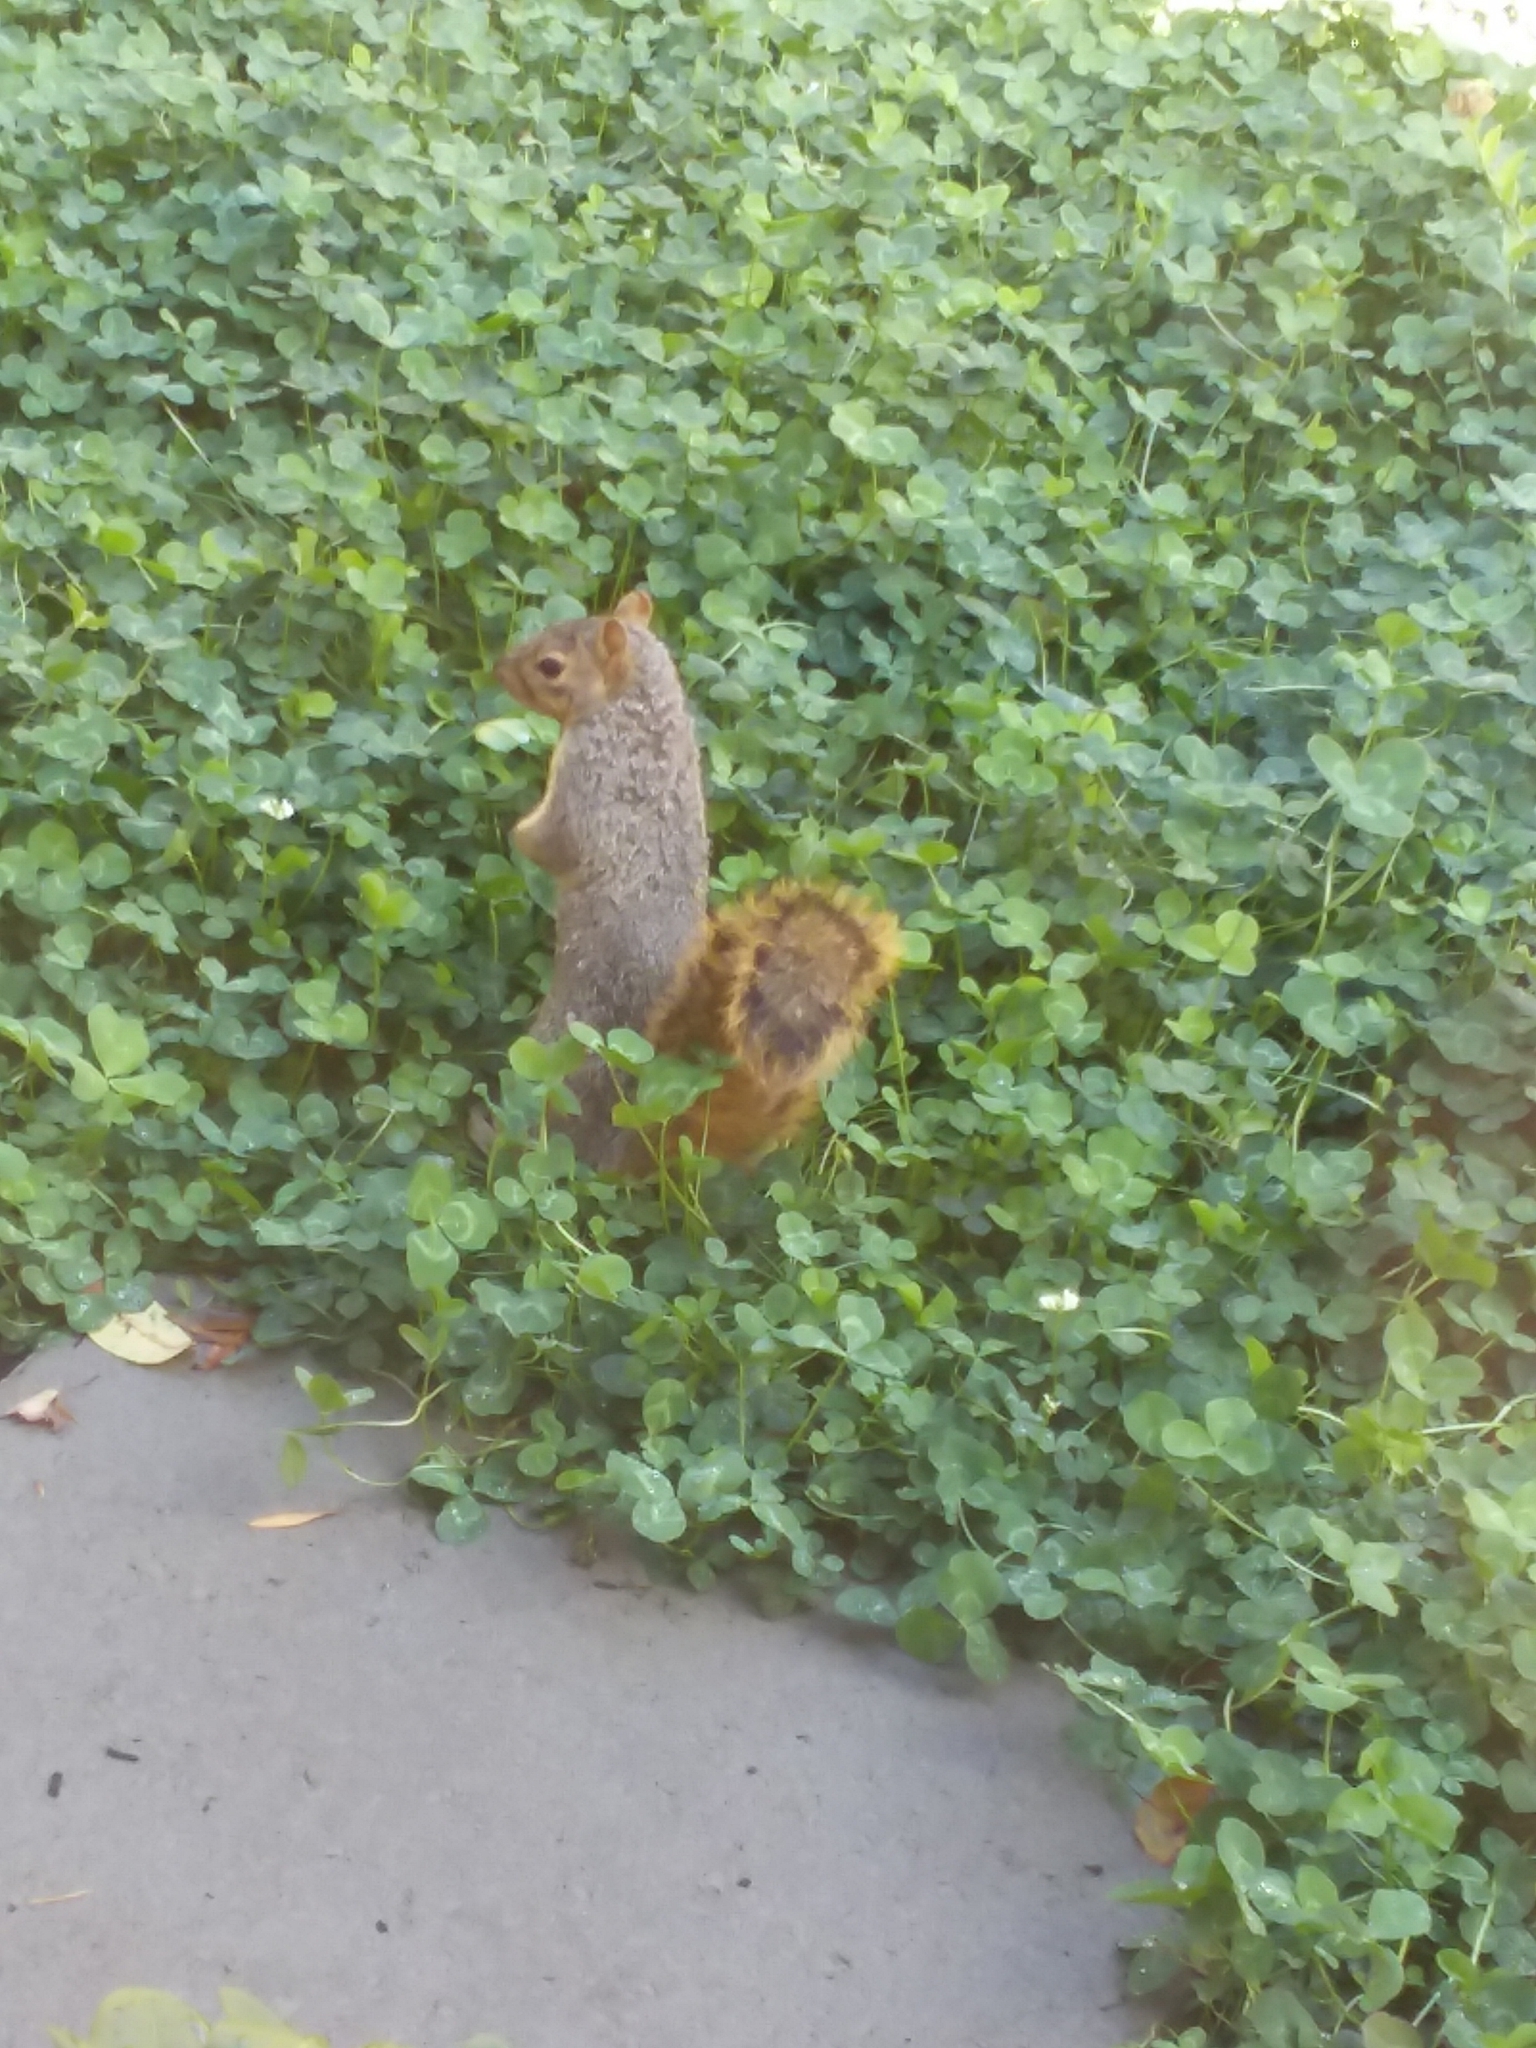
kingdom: Animalia
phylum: Chordata
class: Mammalia
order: Rodentia
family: Sciuridae
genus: Sciurus
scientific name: Sciurus niger
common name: Fox squirrel
